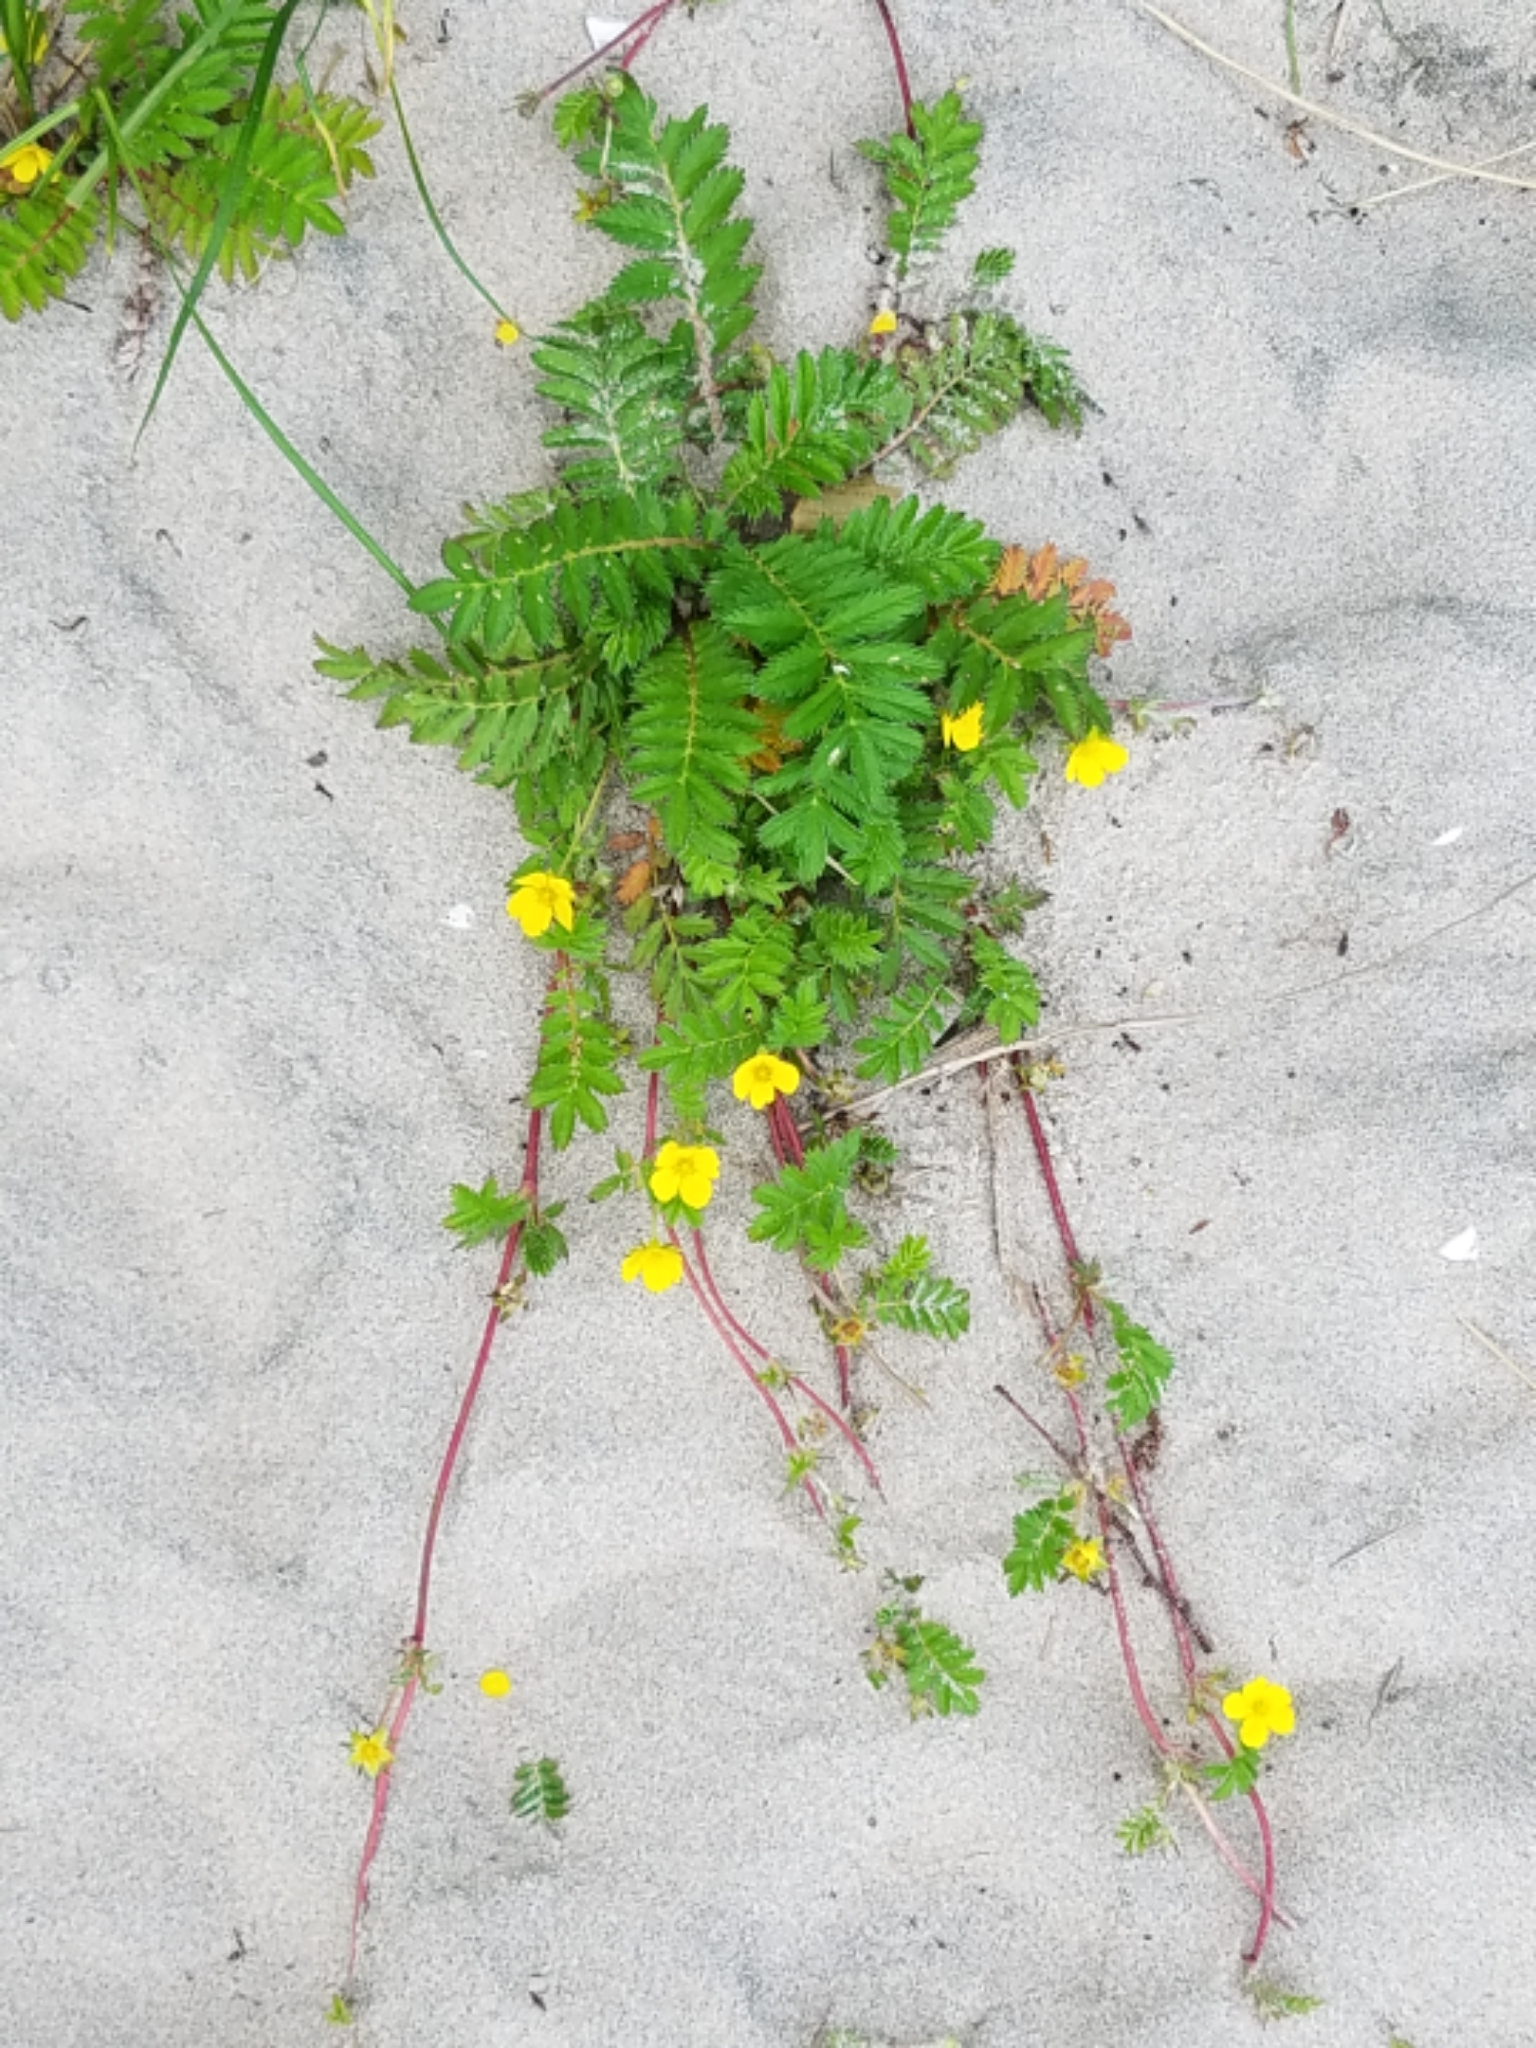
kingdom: Plantae
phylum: Tracheophyta
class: Magnoliopsida
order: Rosales
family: Rosaceae
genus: Argentina
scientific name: Argentina anserina
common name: Common silverweed
